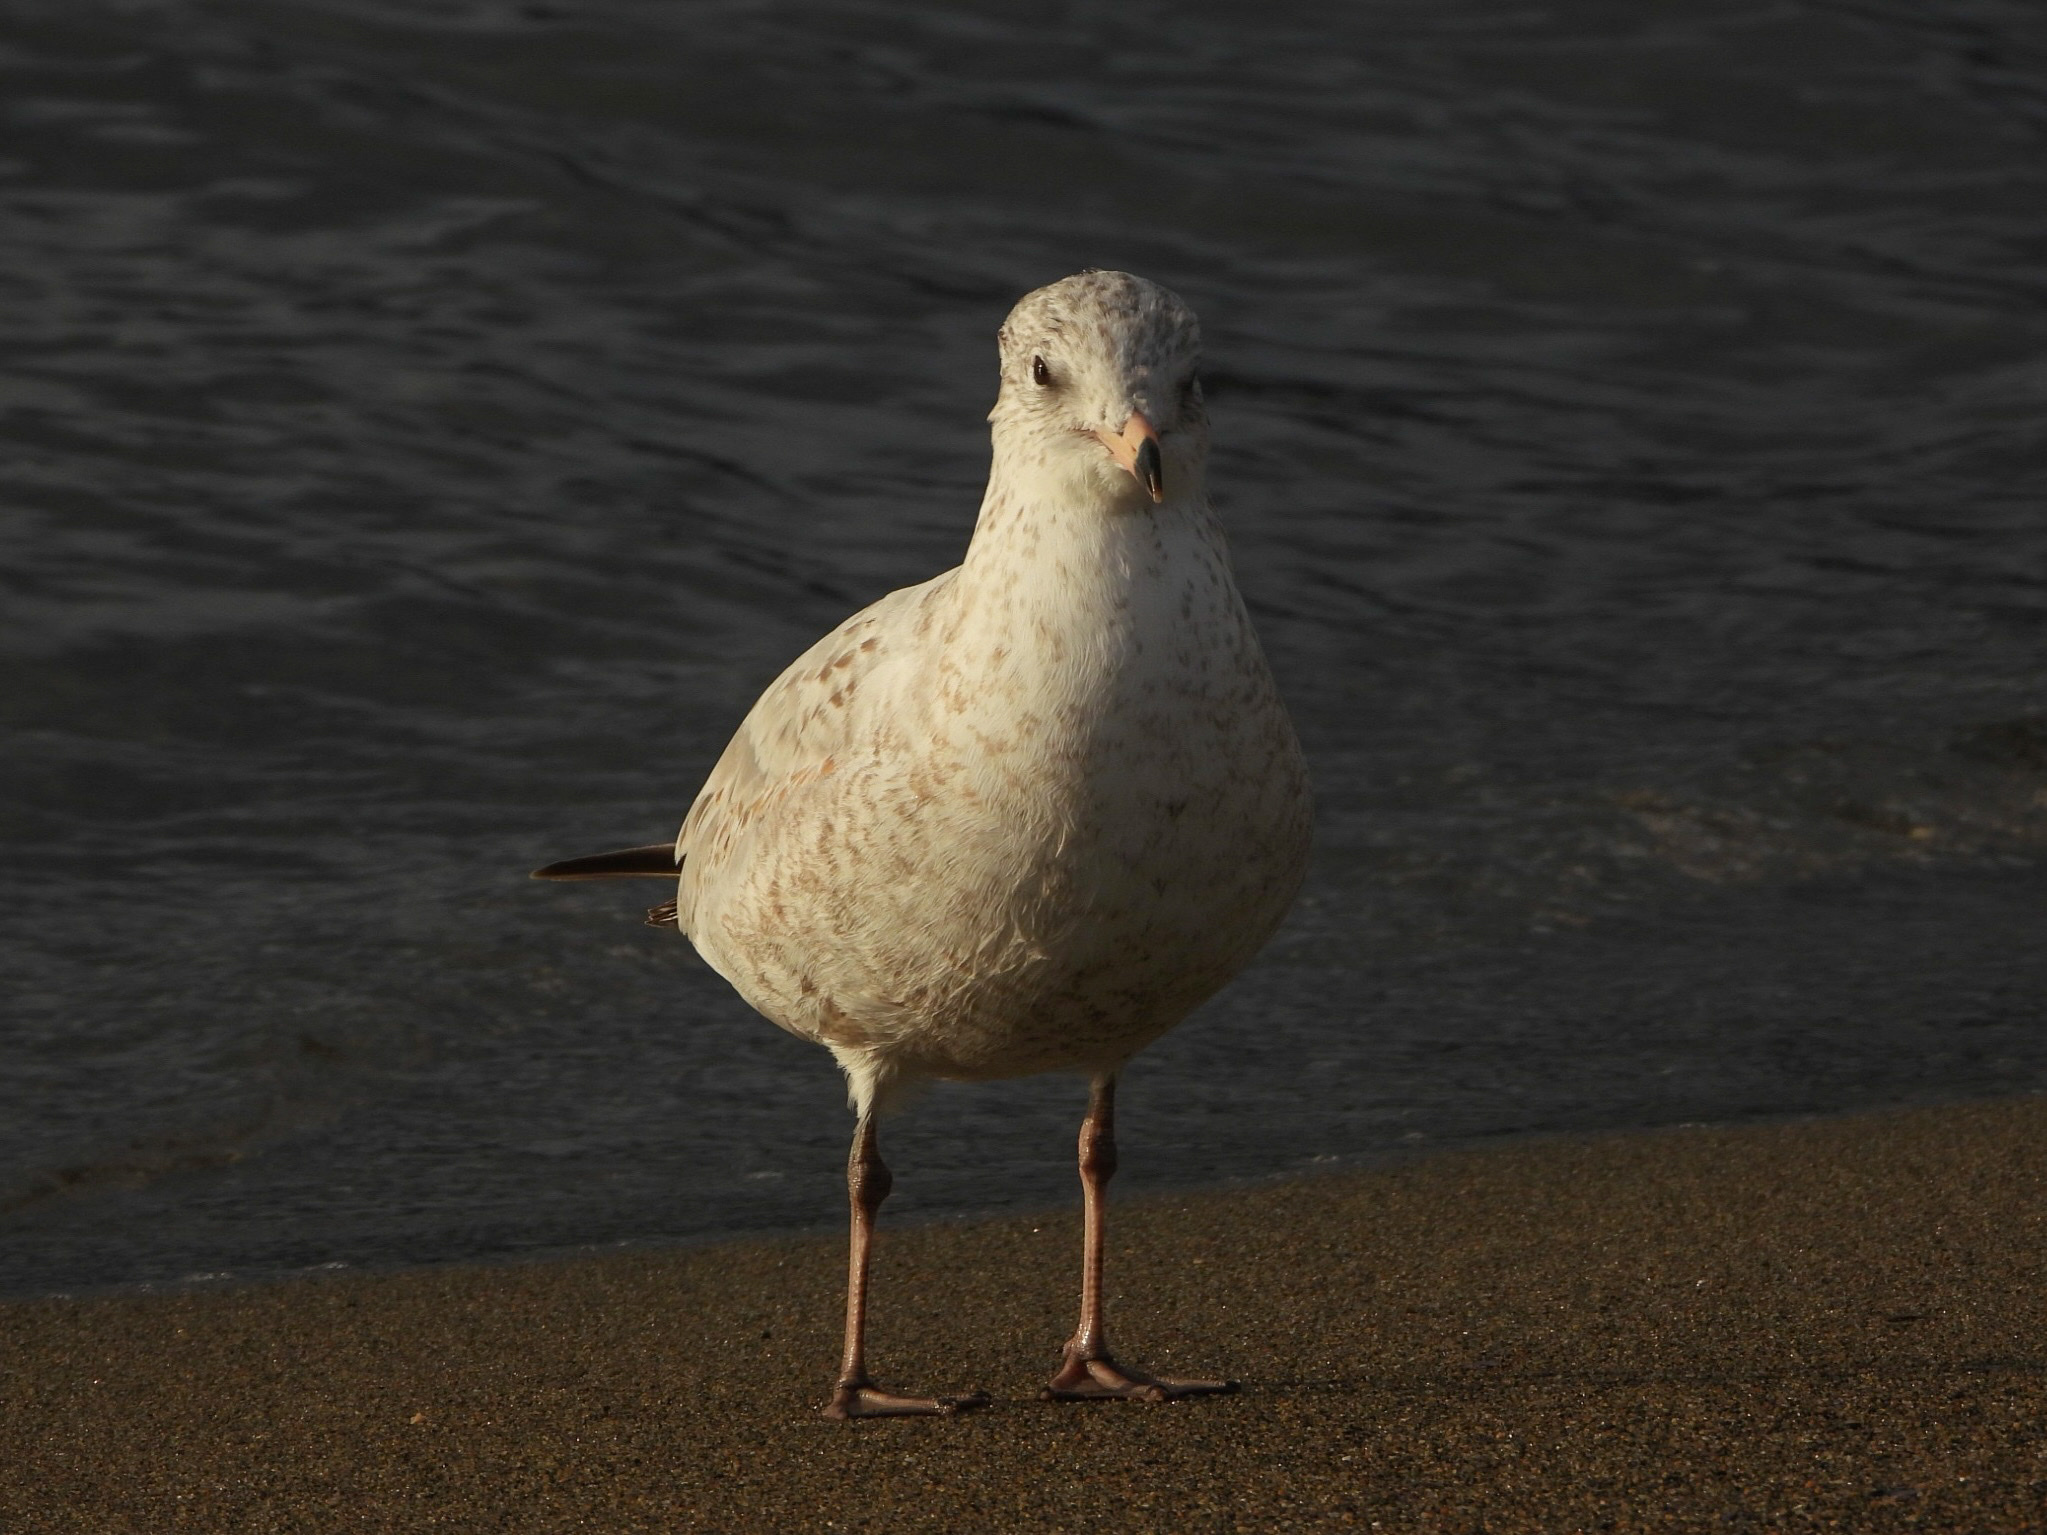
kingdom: Animalia
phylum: Chordata
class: Aves
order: Charadriiformes
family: Laridae
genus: Larus
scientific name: Larus delawarensis
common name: Ring-billed gull
